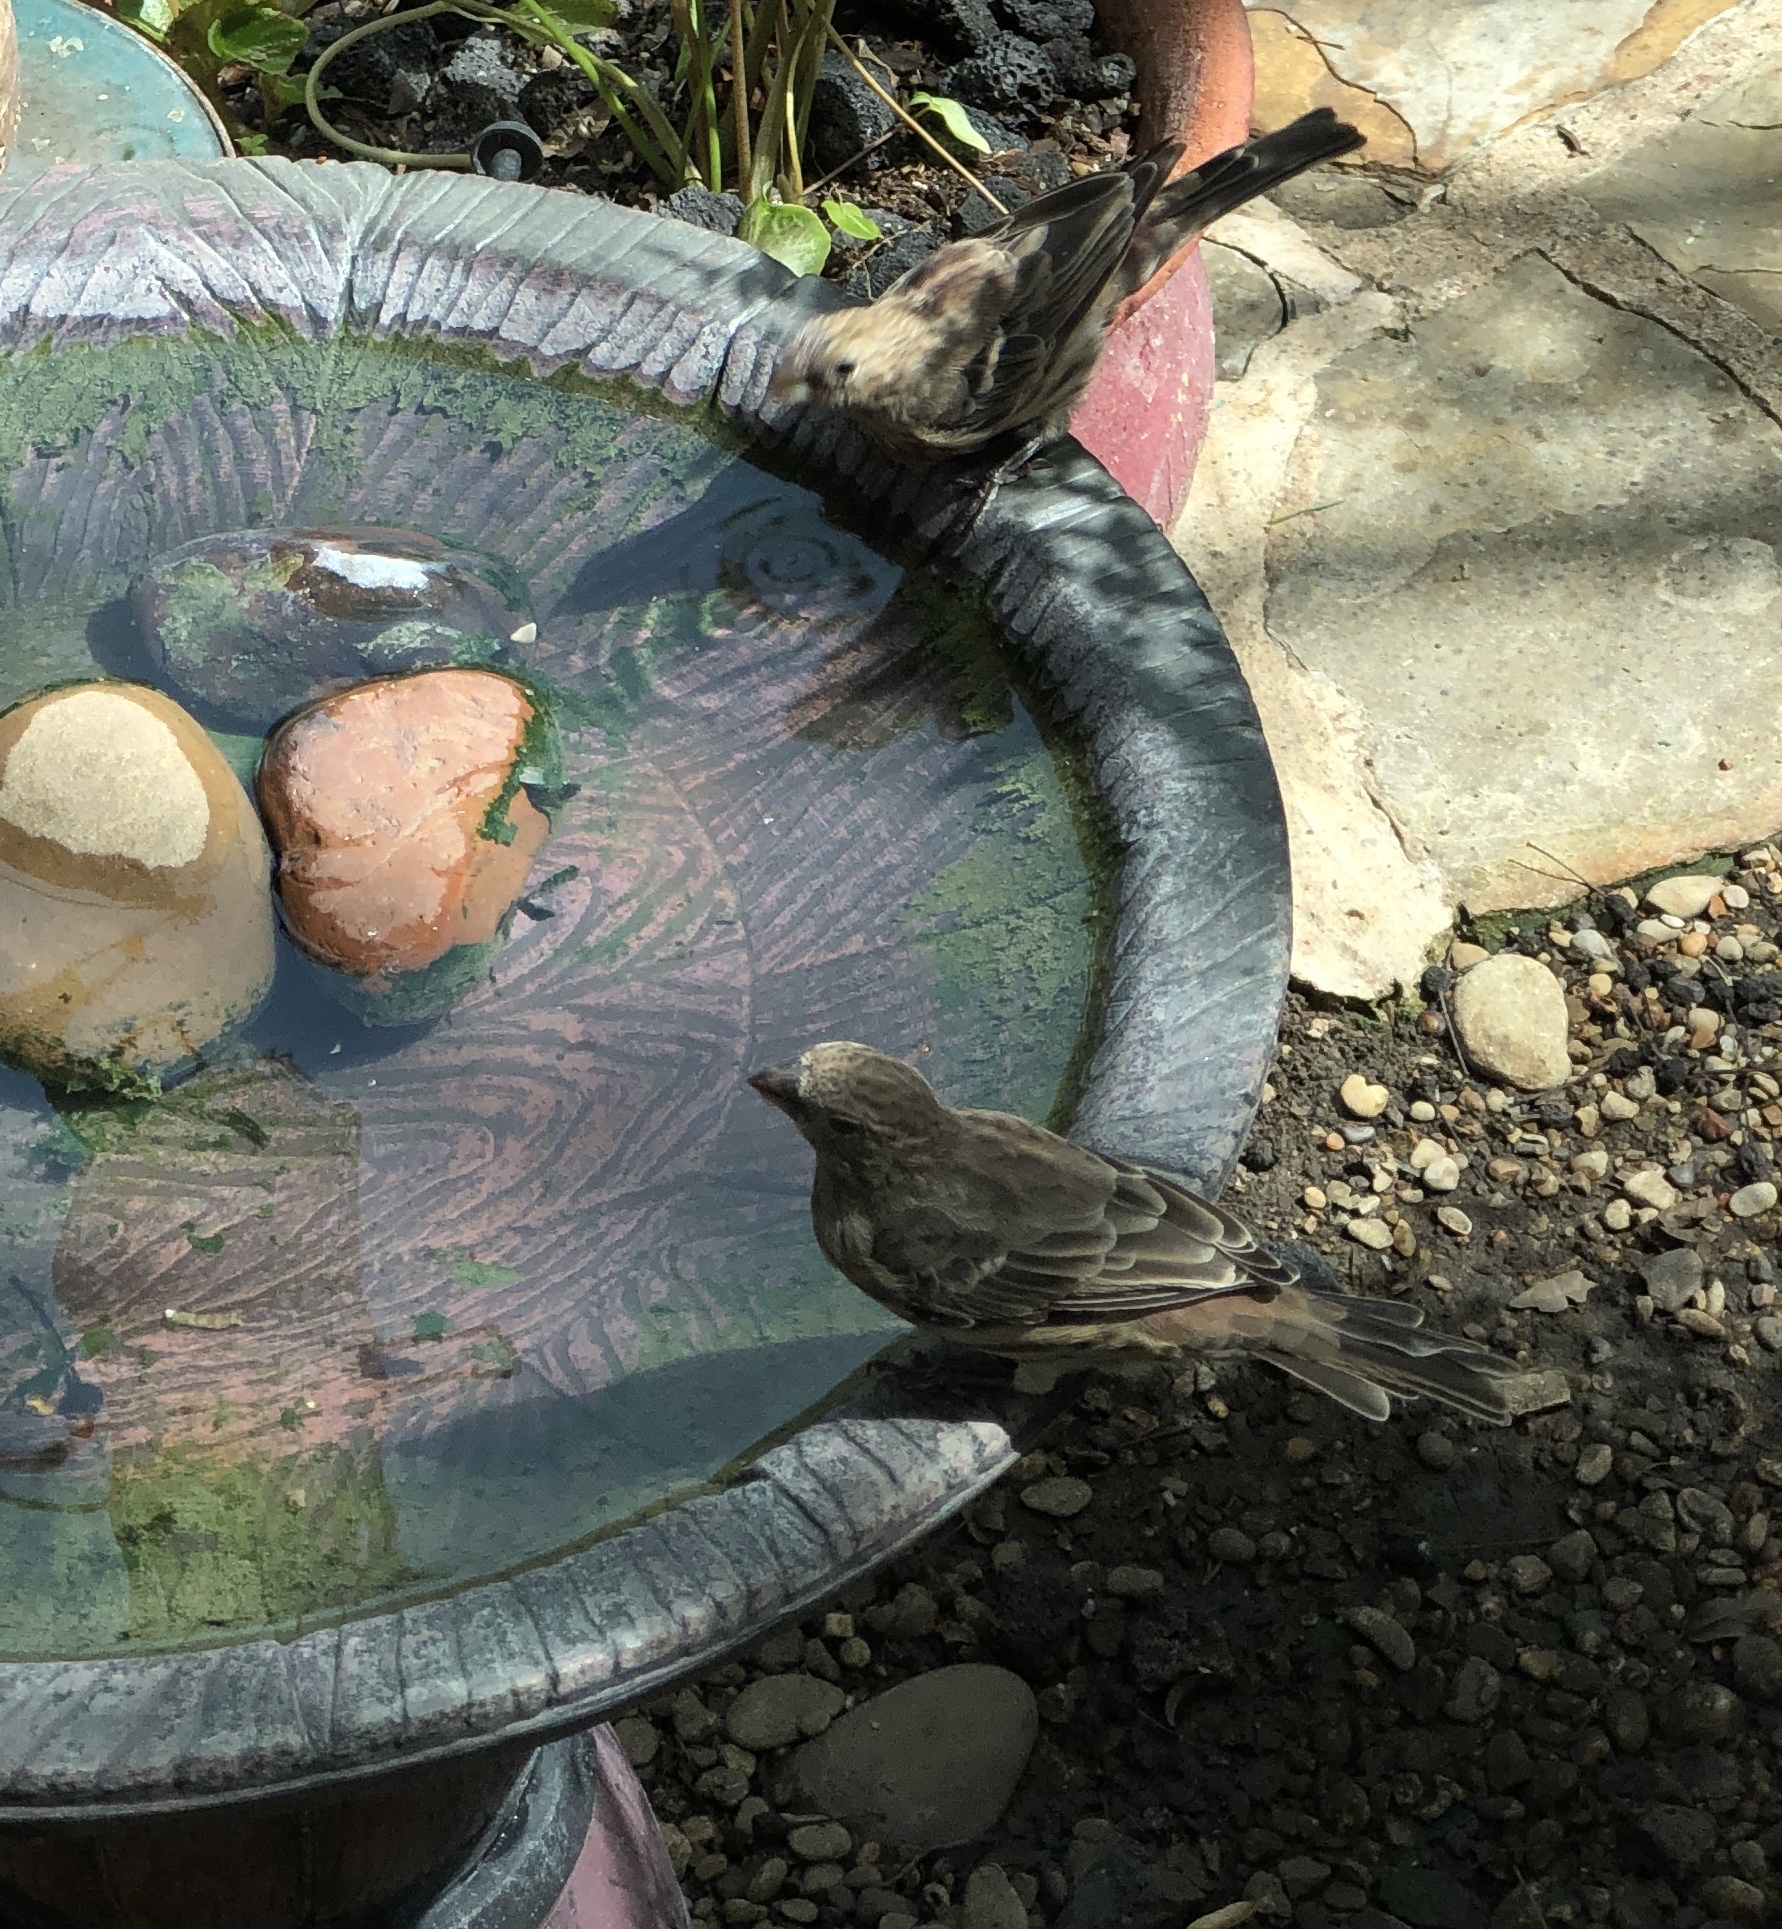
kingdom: Animalia
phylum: Chordata
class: Aves
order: Passeriformes
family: Fringillidae
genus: Haemorhous
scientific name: Haemorhous mexicanus
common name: House finch
